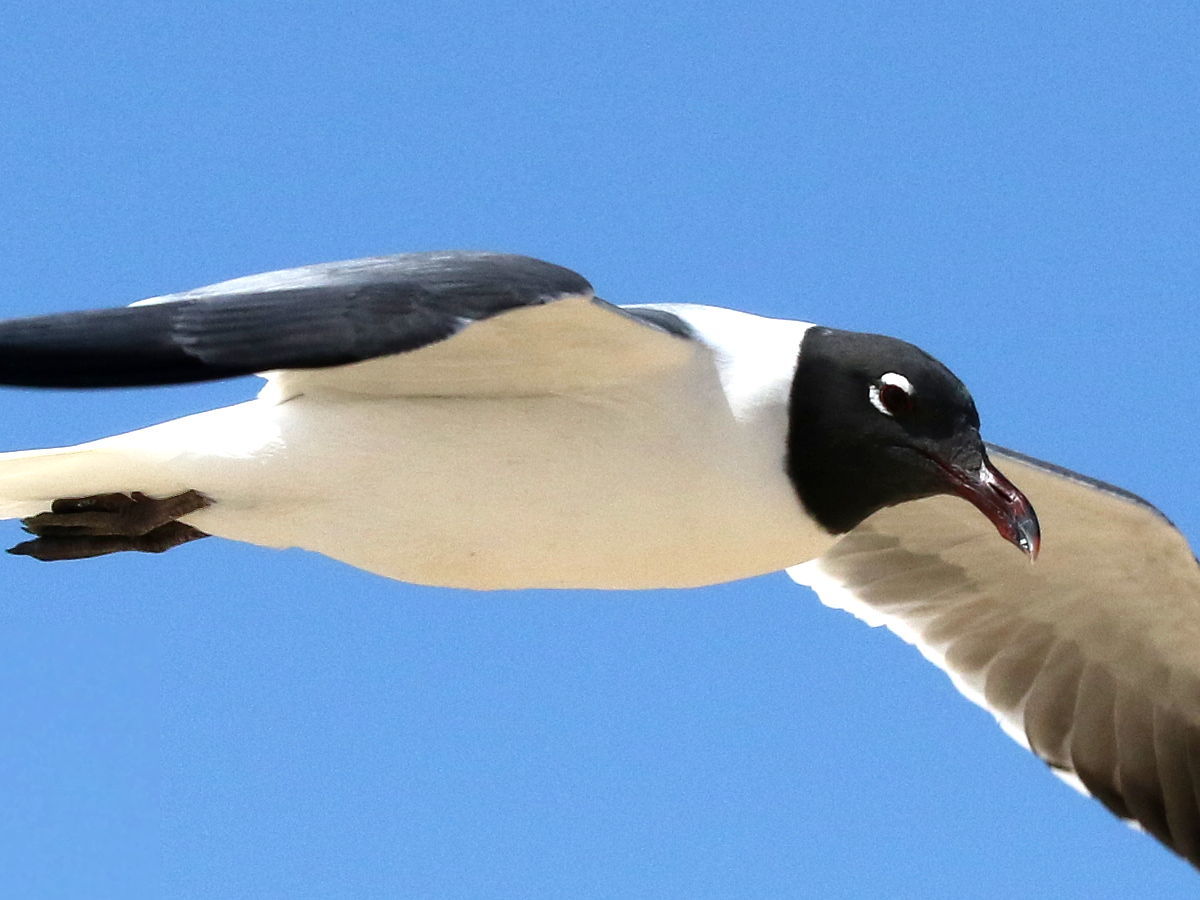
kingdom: Animalia
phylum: Chordata
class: Aves
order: Charadriiformes
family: Laridae
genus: Leucophaeus
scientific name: Leucophaeus atricilla
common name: Laughing gull
